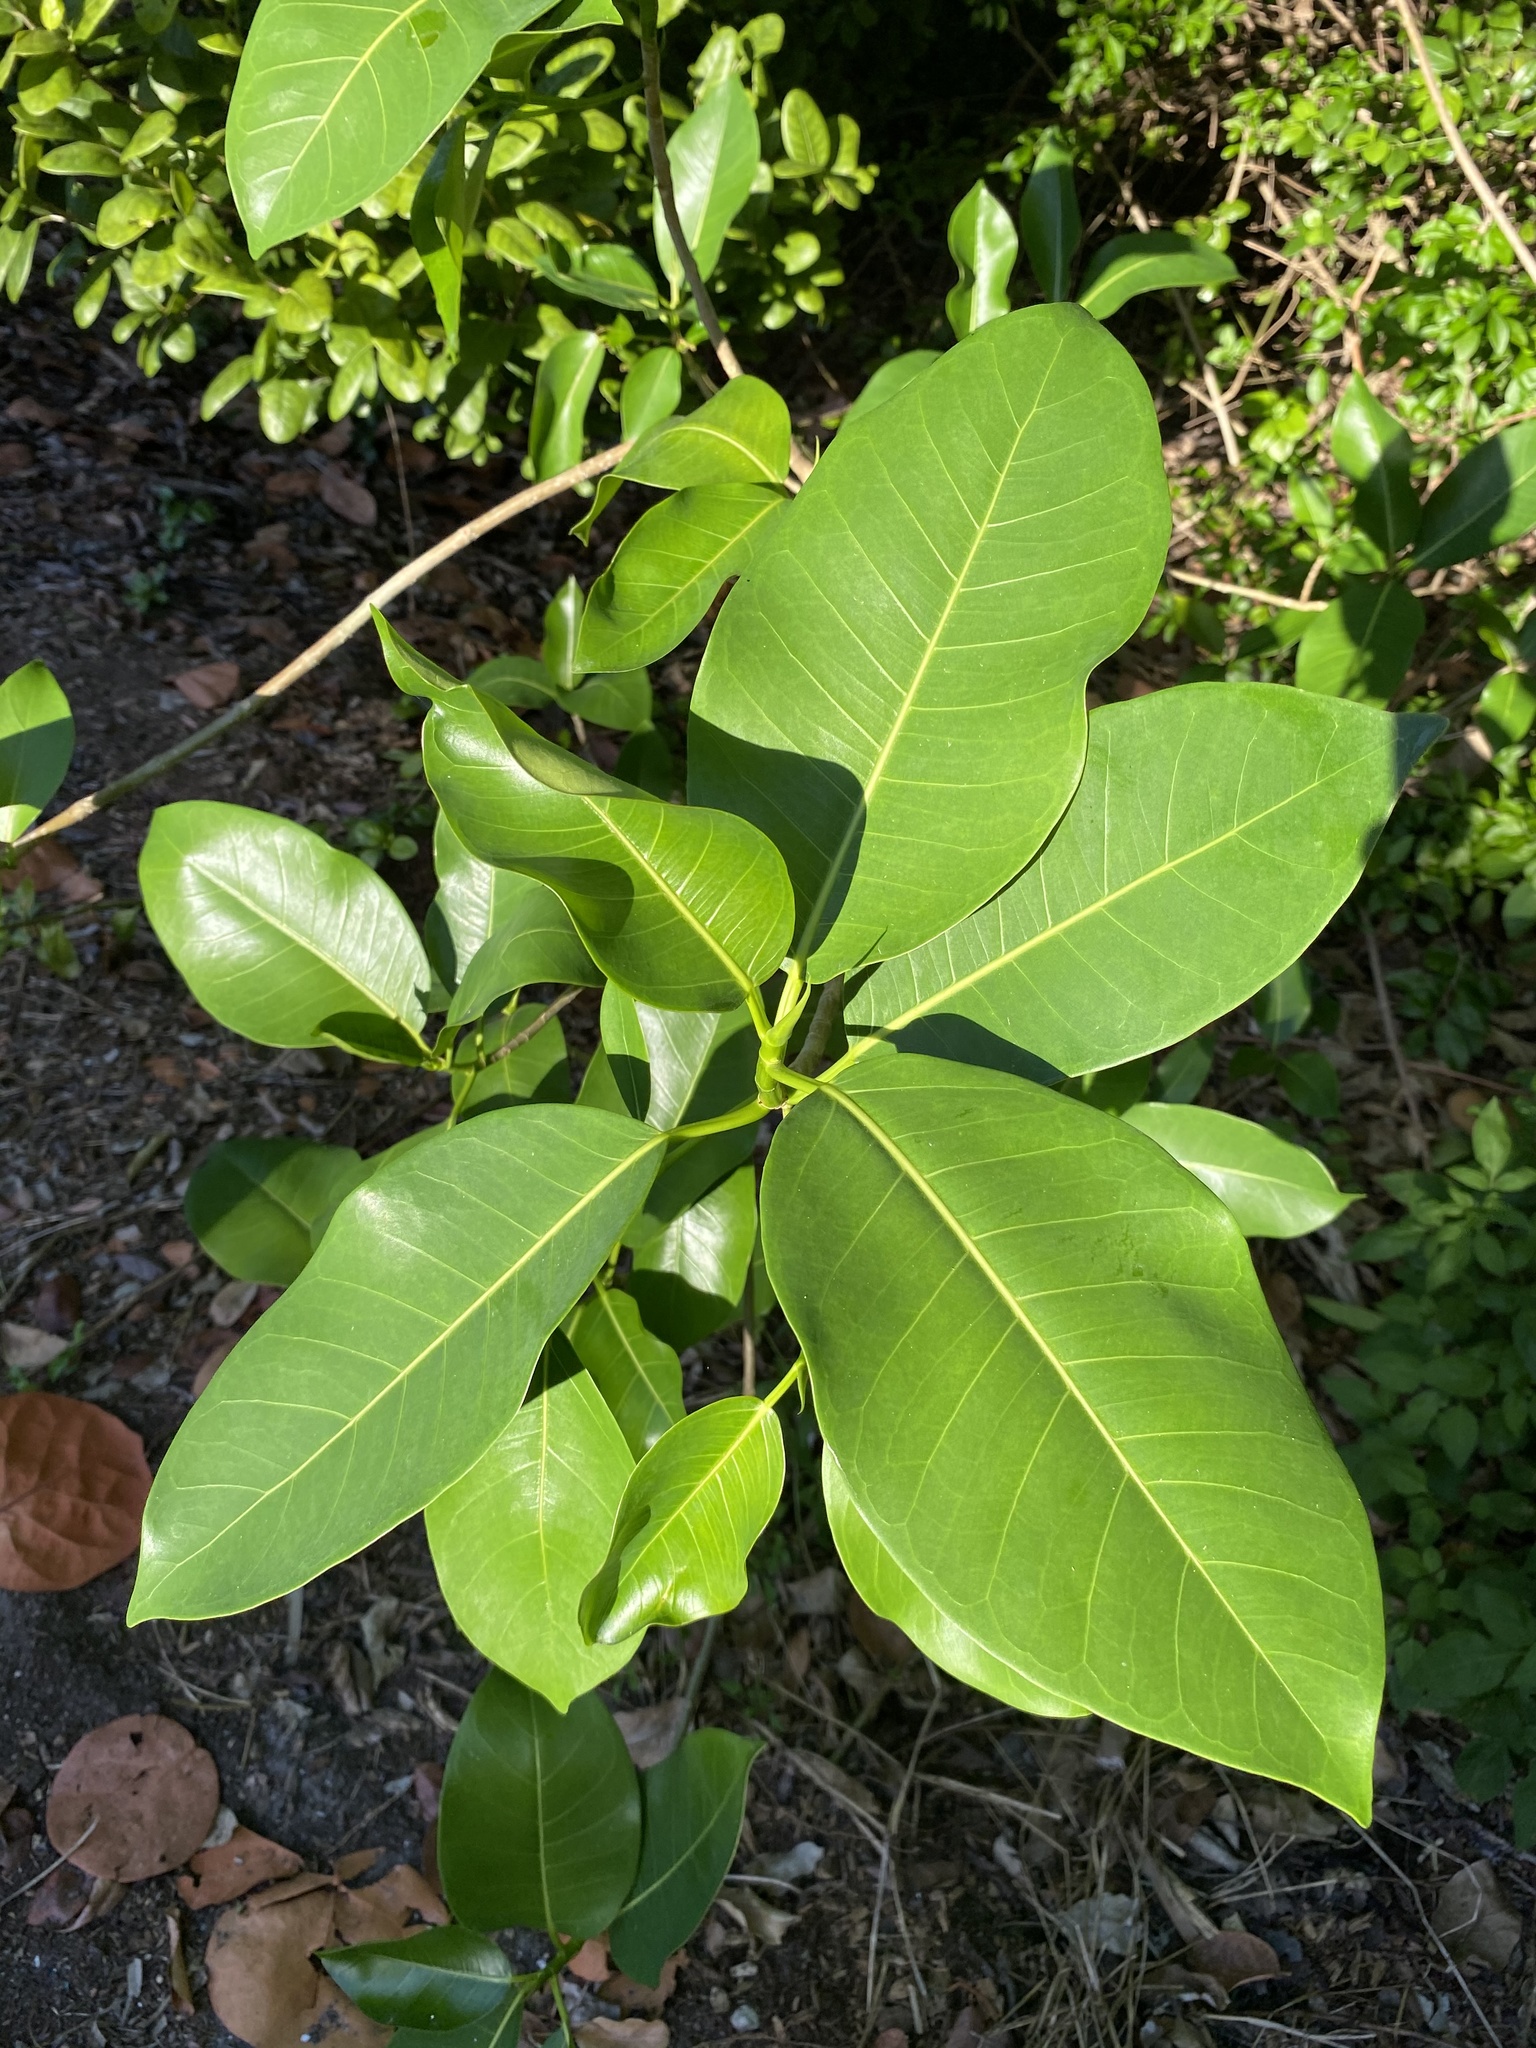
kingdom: Plantae
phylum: Tracheophyta
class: Magnoliopsida
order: Rosales
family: Moraceae
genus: Ficus
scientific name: Ficus aurea
